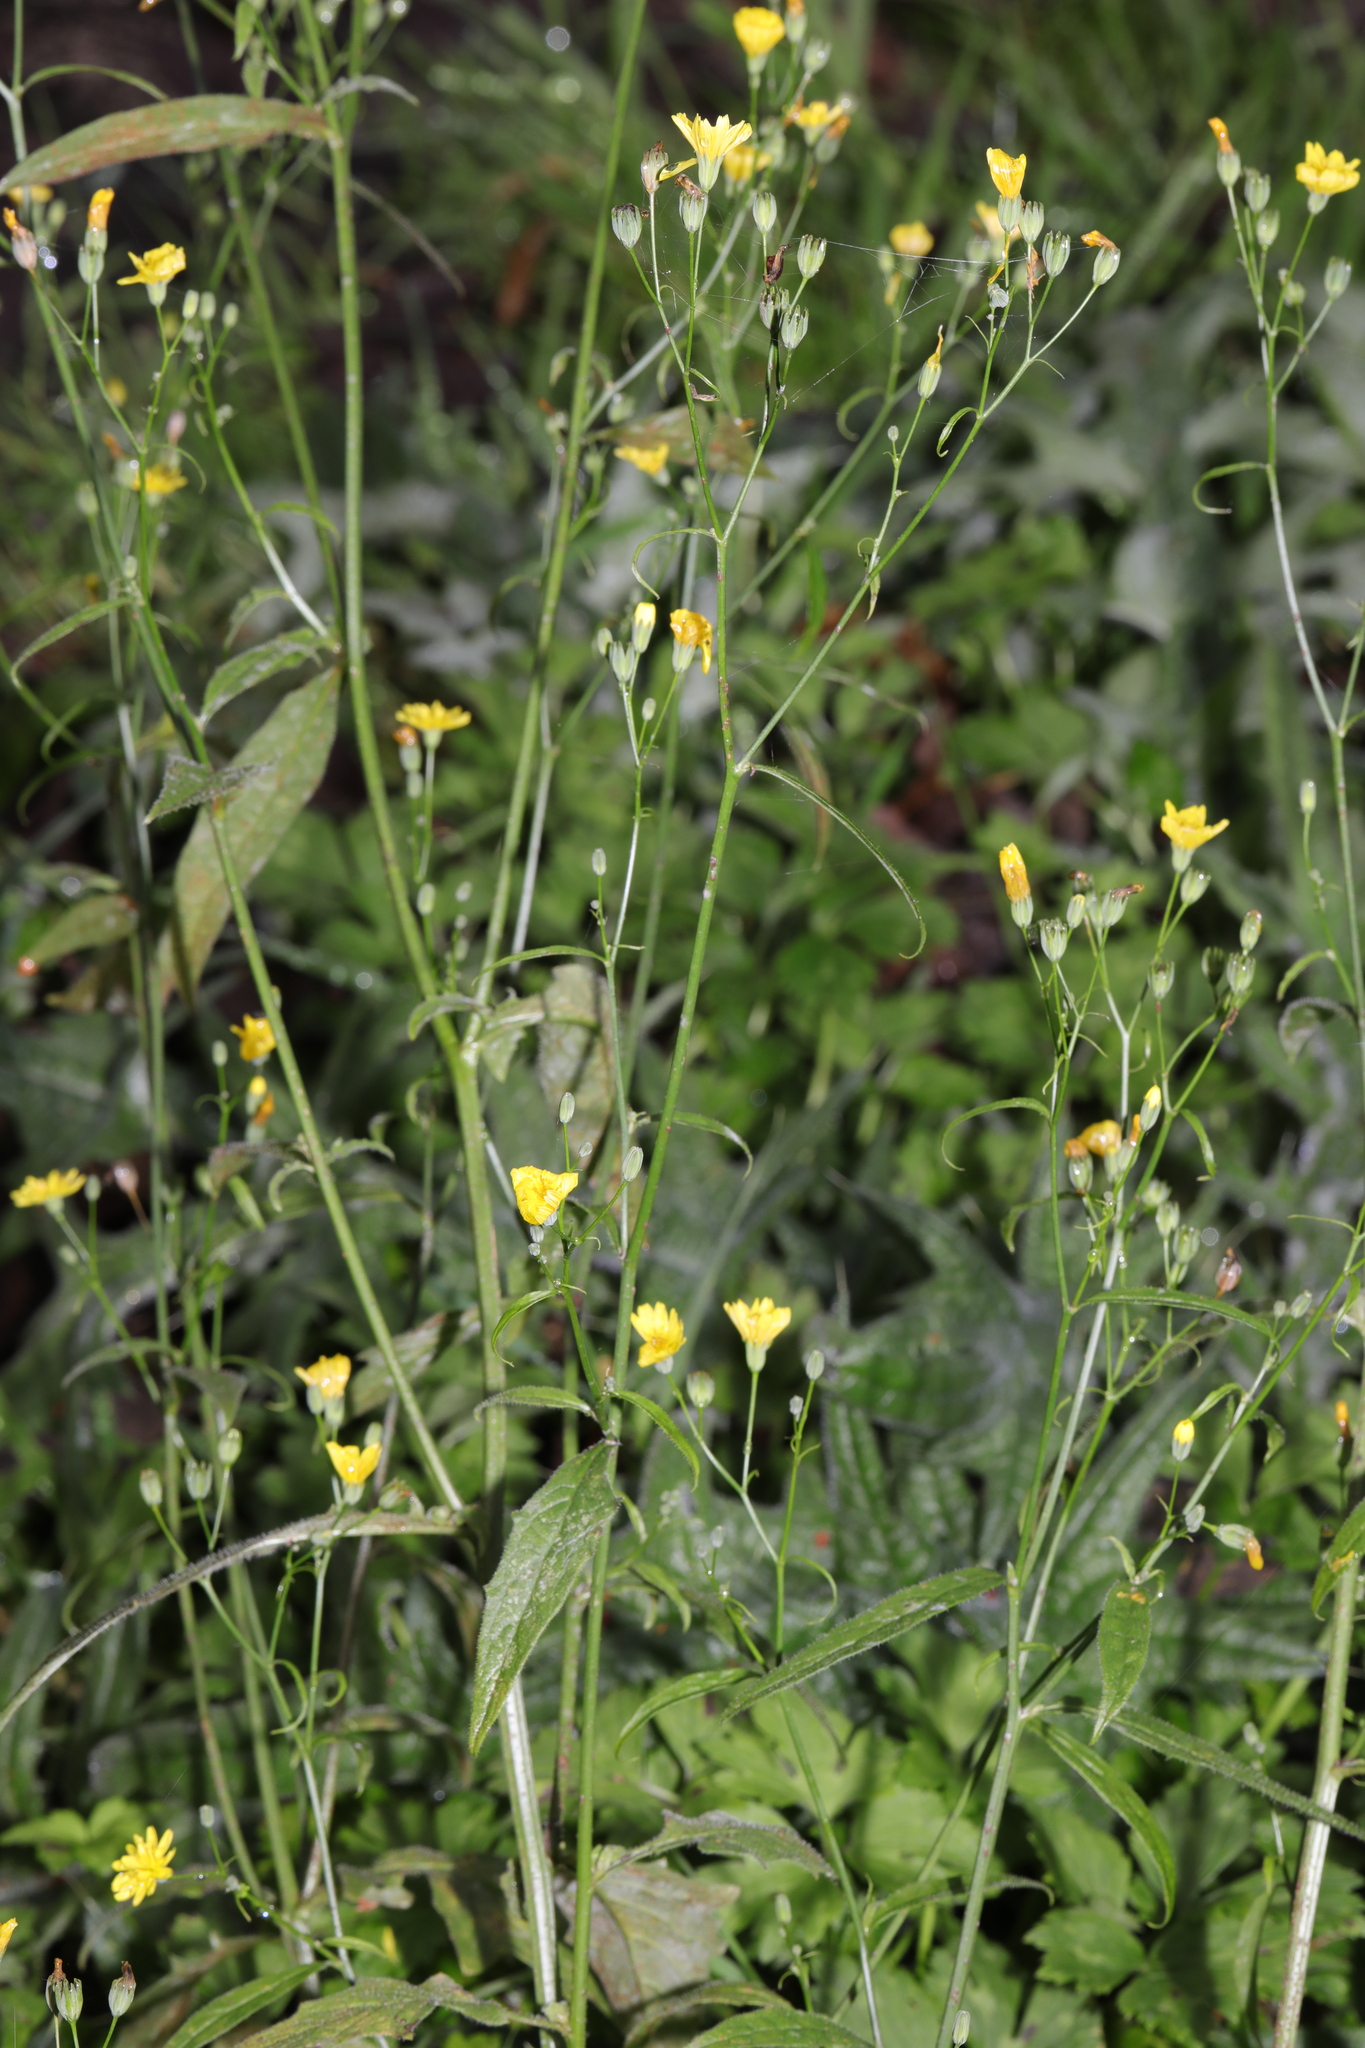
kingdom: Plantae
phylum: Tracheophyta
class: Magnoliopsida
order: Asterales
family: Asteraceae
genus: Lapsana
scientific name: Lapsana communis
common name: Nipplewort
